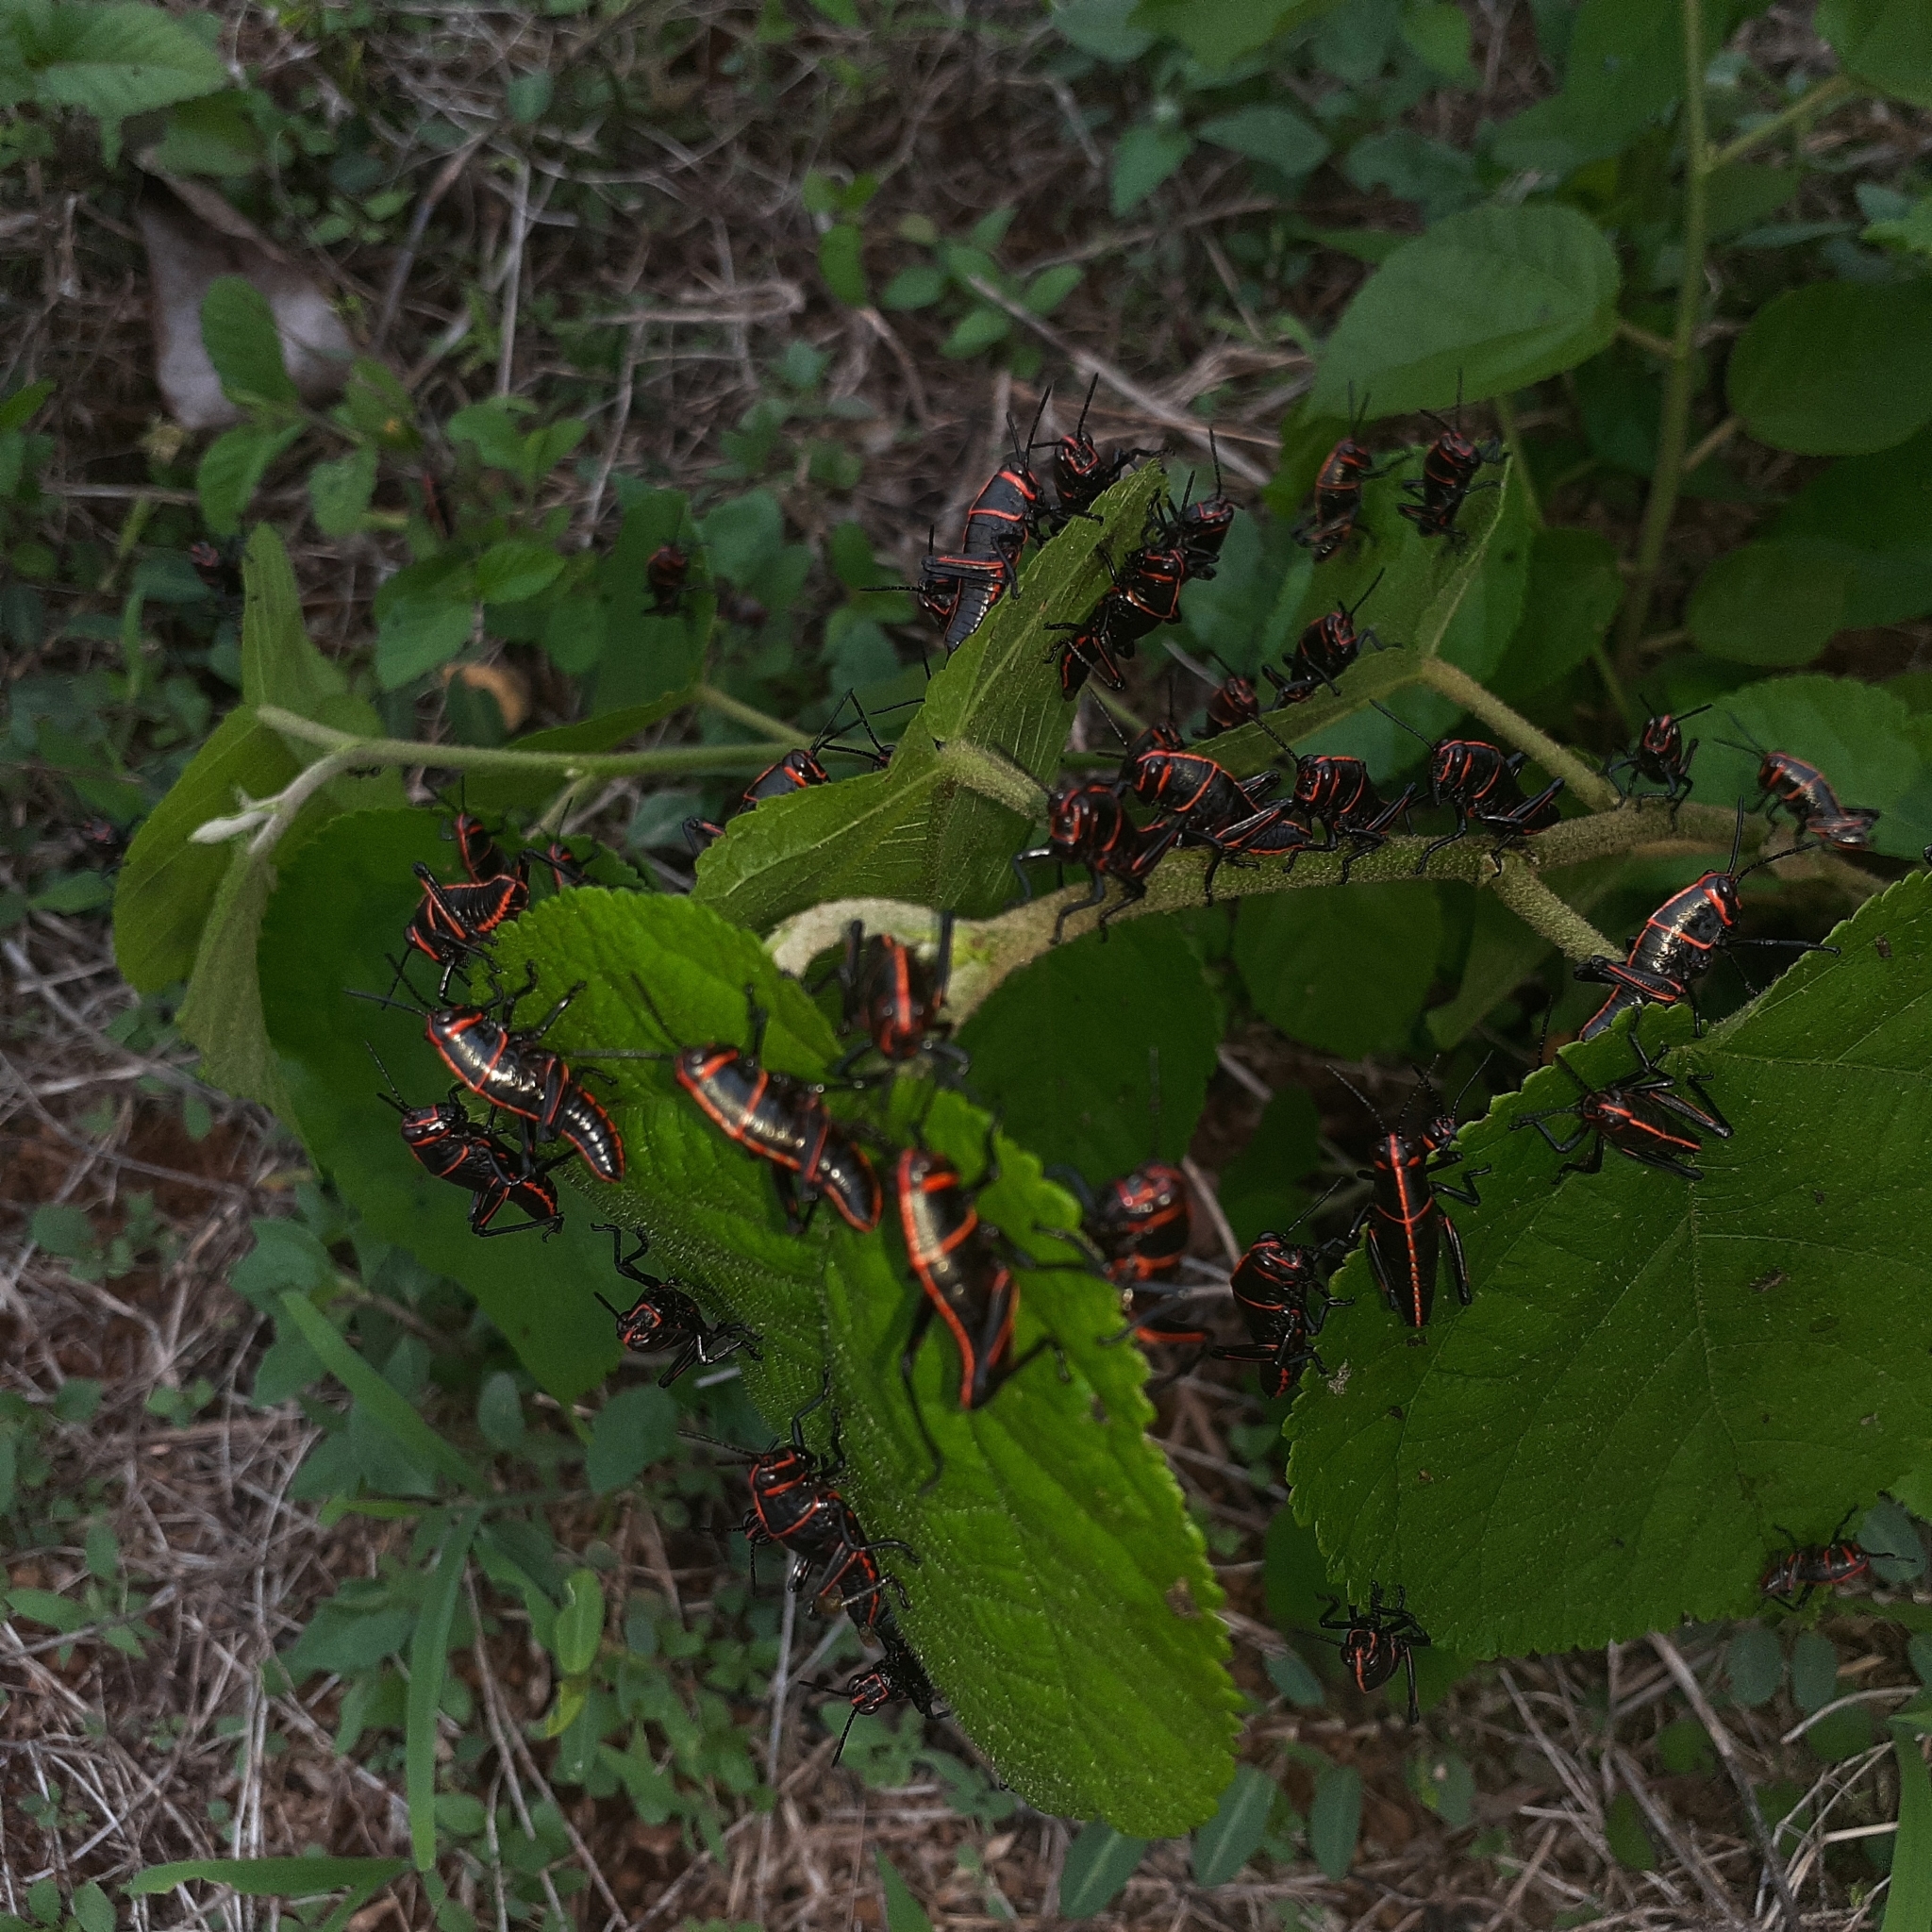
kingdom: Animalia
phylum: Arthropoda
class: Insecta
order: Orthoptera
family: Romaleidae
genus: Romalea
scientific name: Romalea
